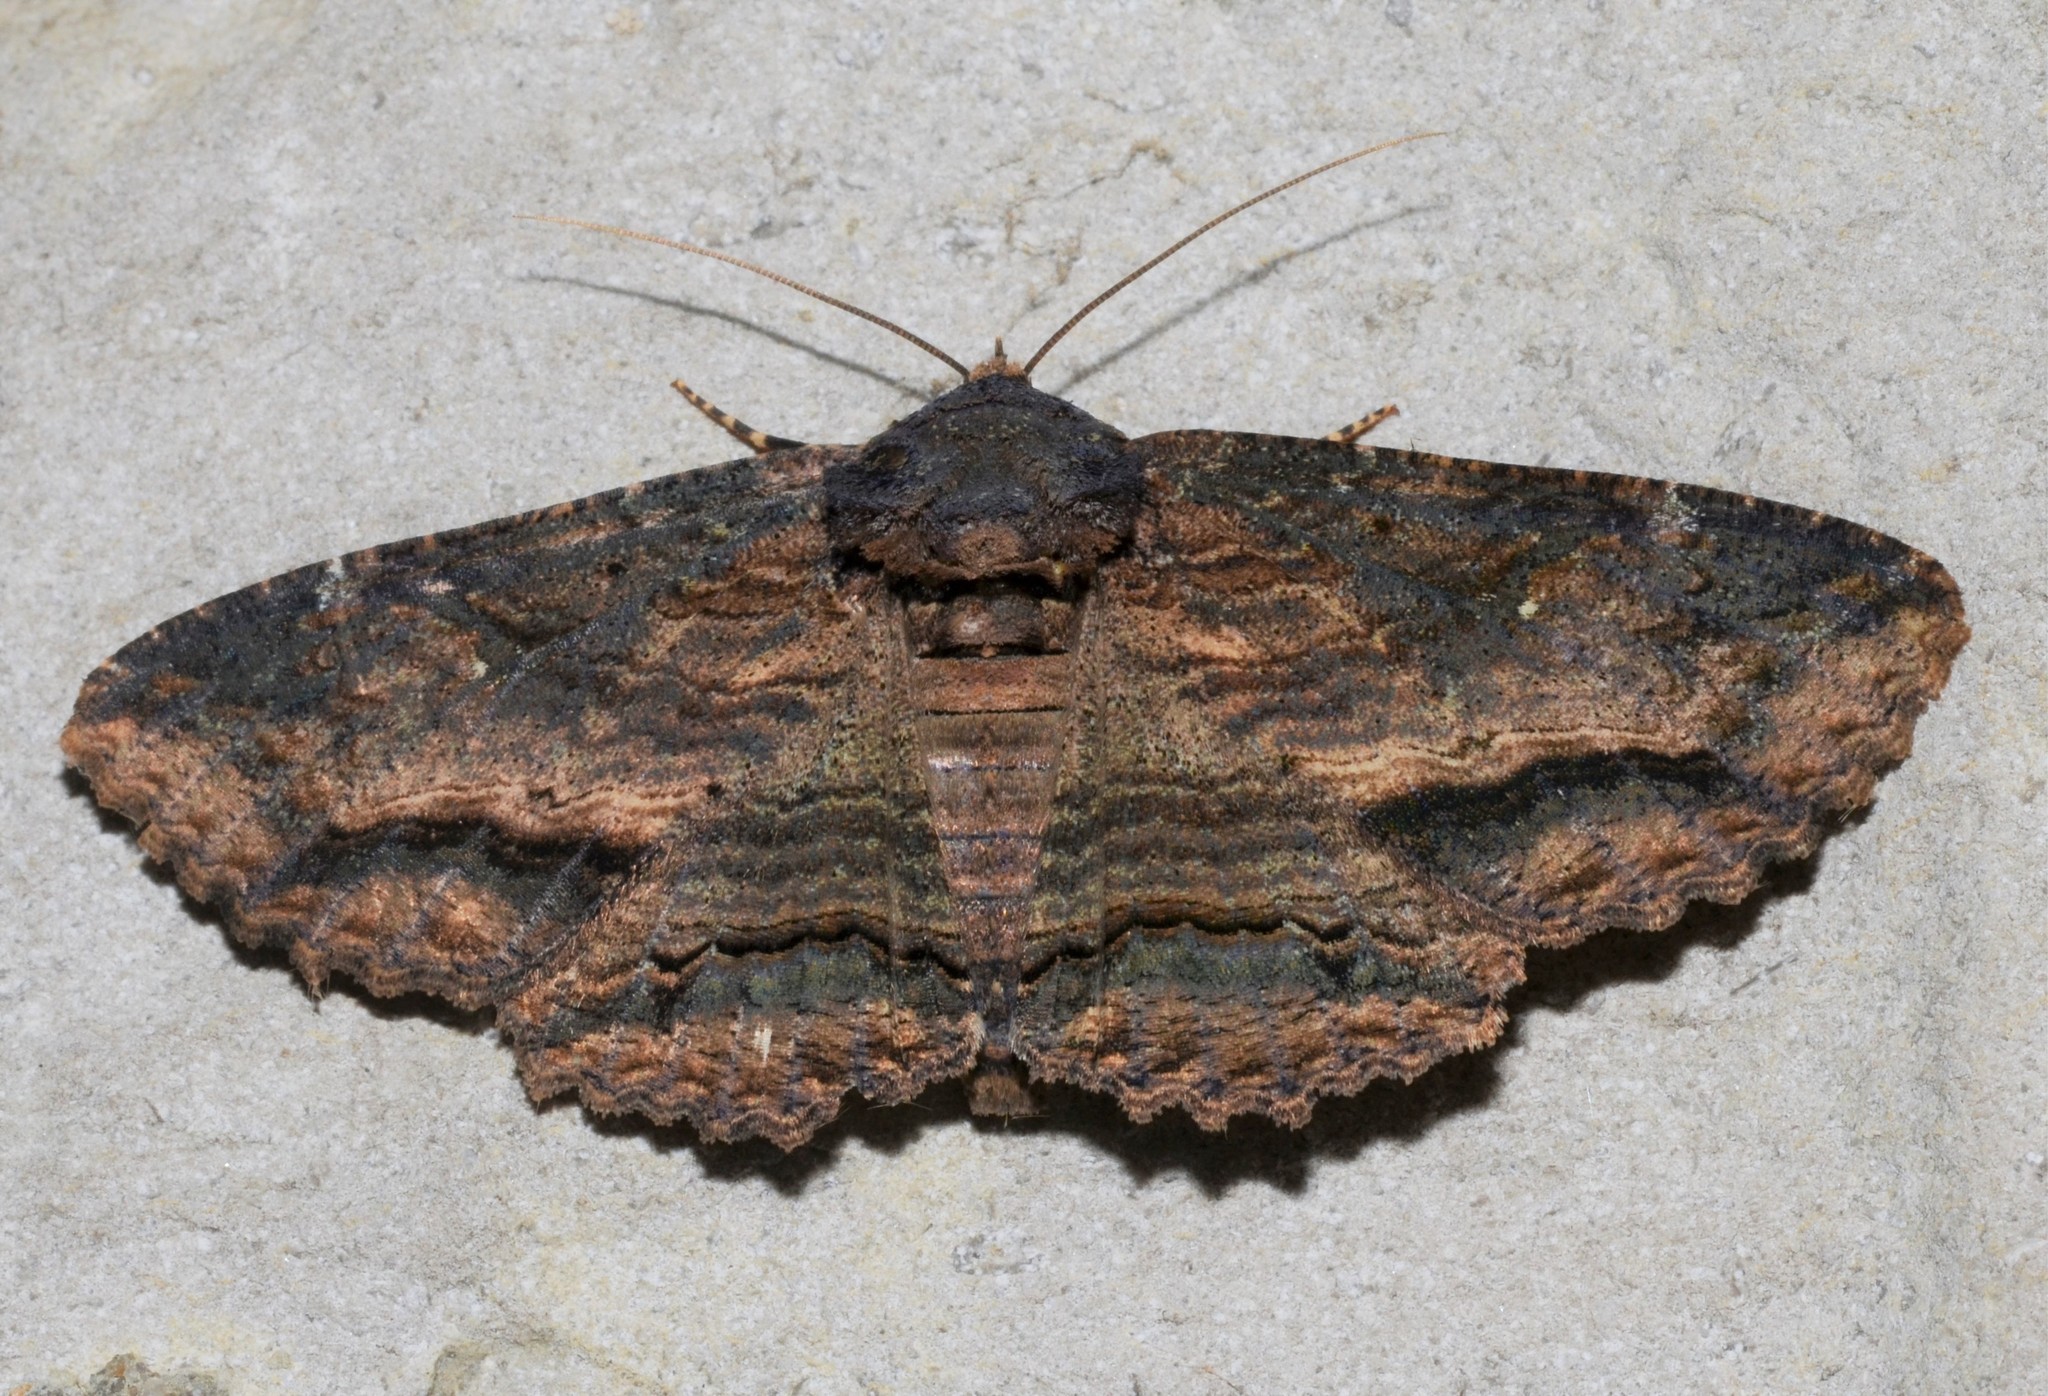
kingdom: Animalia
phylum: Arthropoda
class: Insecta
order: Lepidoptera
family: Erebidae
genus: Zale
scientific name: Zale lunata
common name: Lunate zale moth
